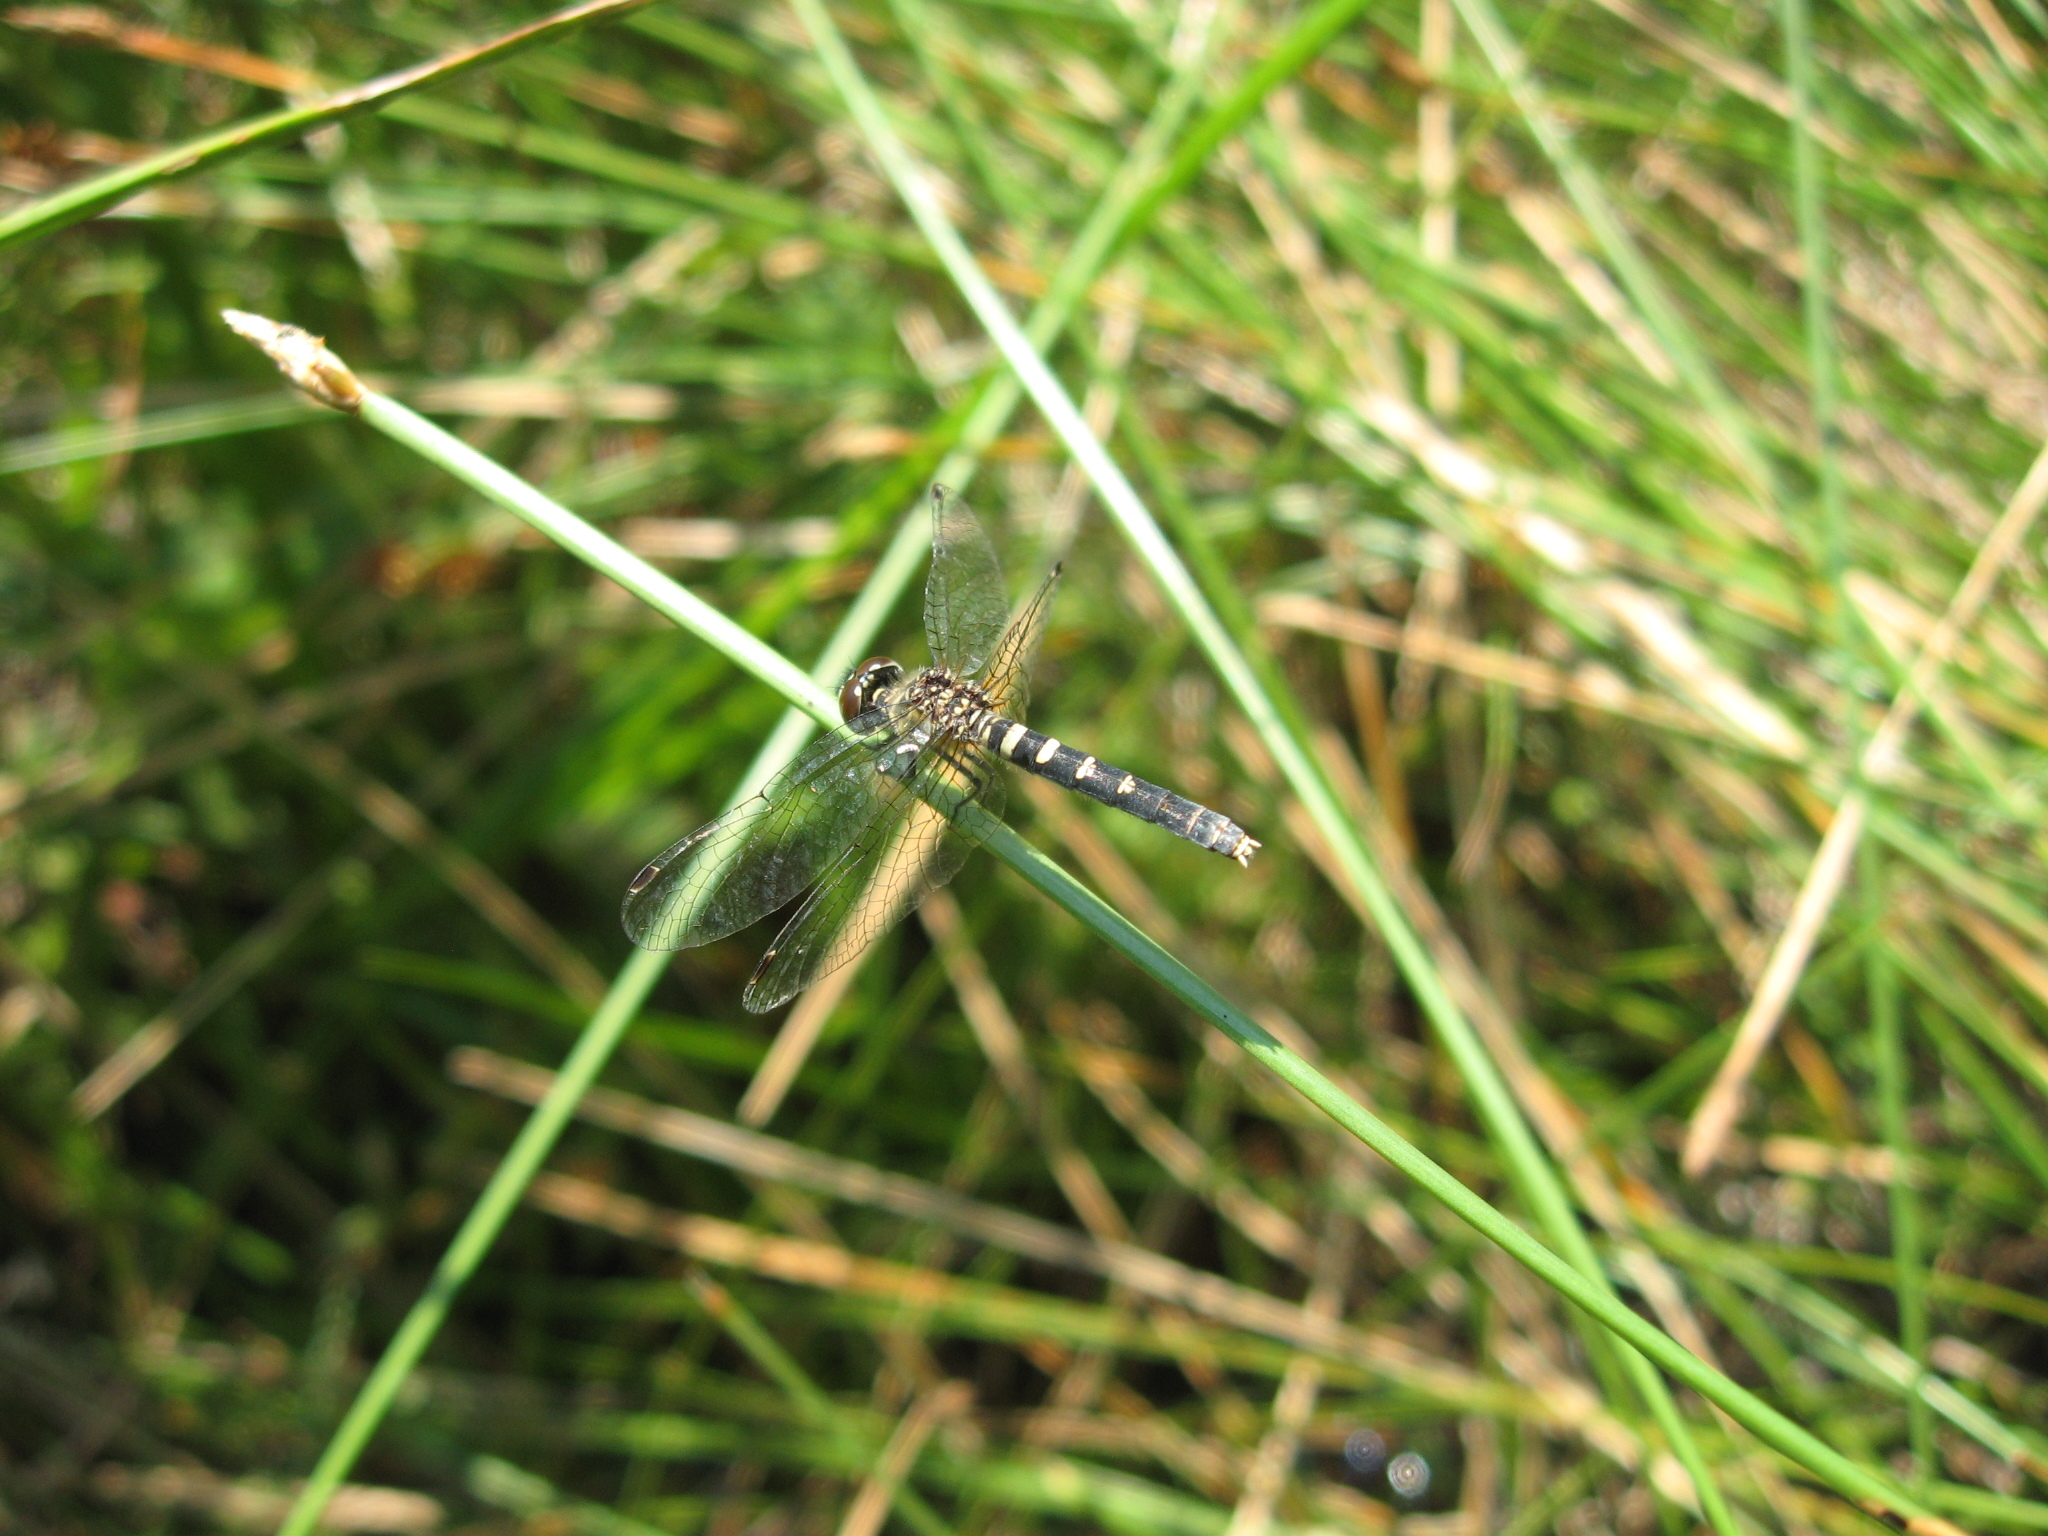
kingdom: Animalia
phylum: Arthropoda
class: Insecta
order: Odonata
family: Libellulidae
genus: Nannothemis
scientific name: Nannothemis bella
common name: Elfin skimmer
